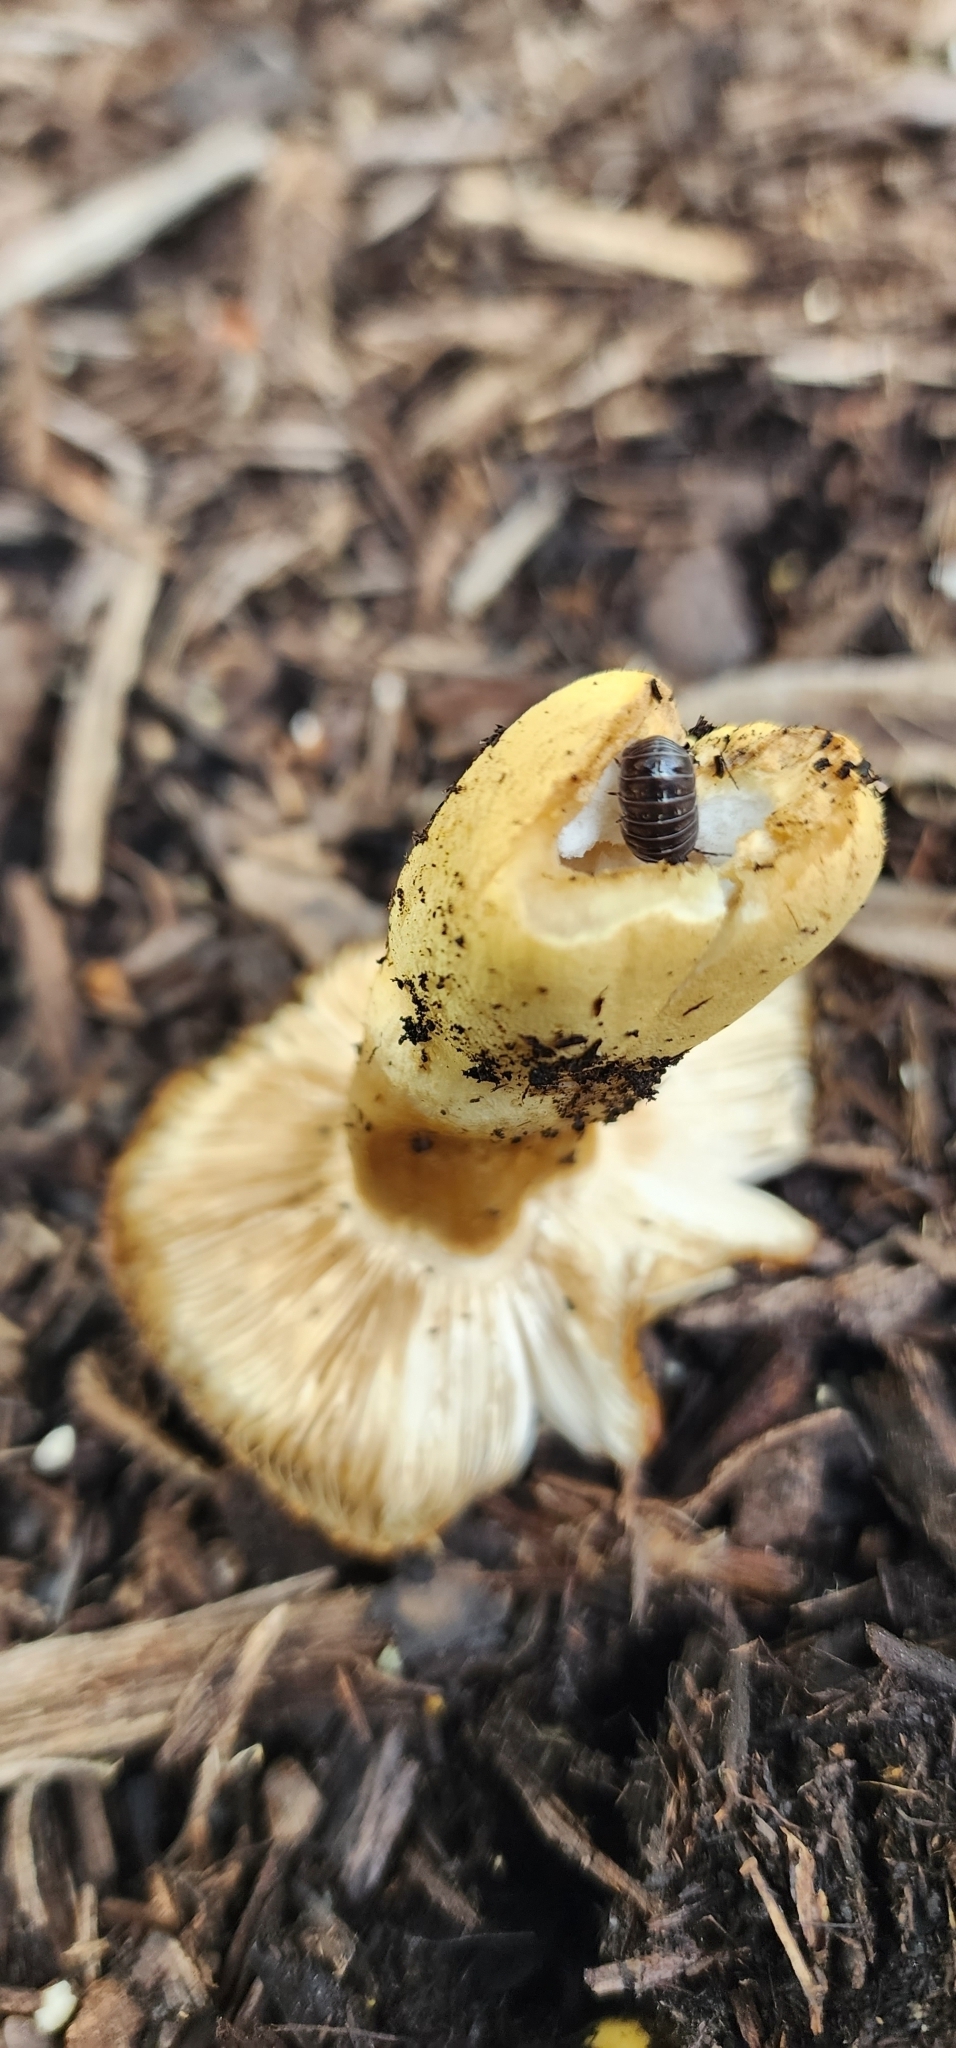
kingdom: Animalia
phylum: Arthropoda
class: Malacostraca
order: Isopoda
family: Armadillidiidae
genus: Armadillidium
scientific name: Armadillidium vulgare
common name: Common pill woodlouse
